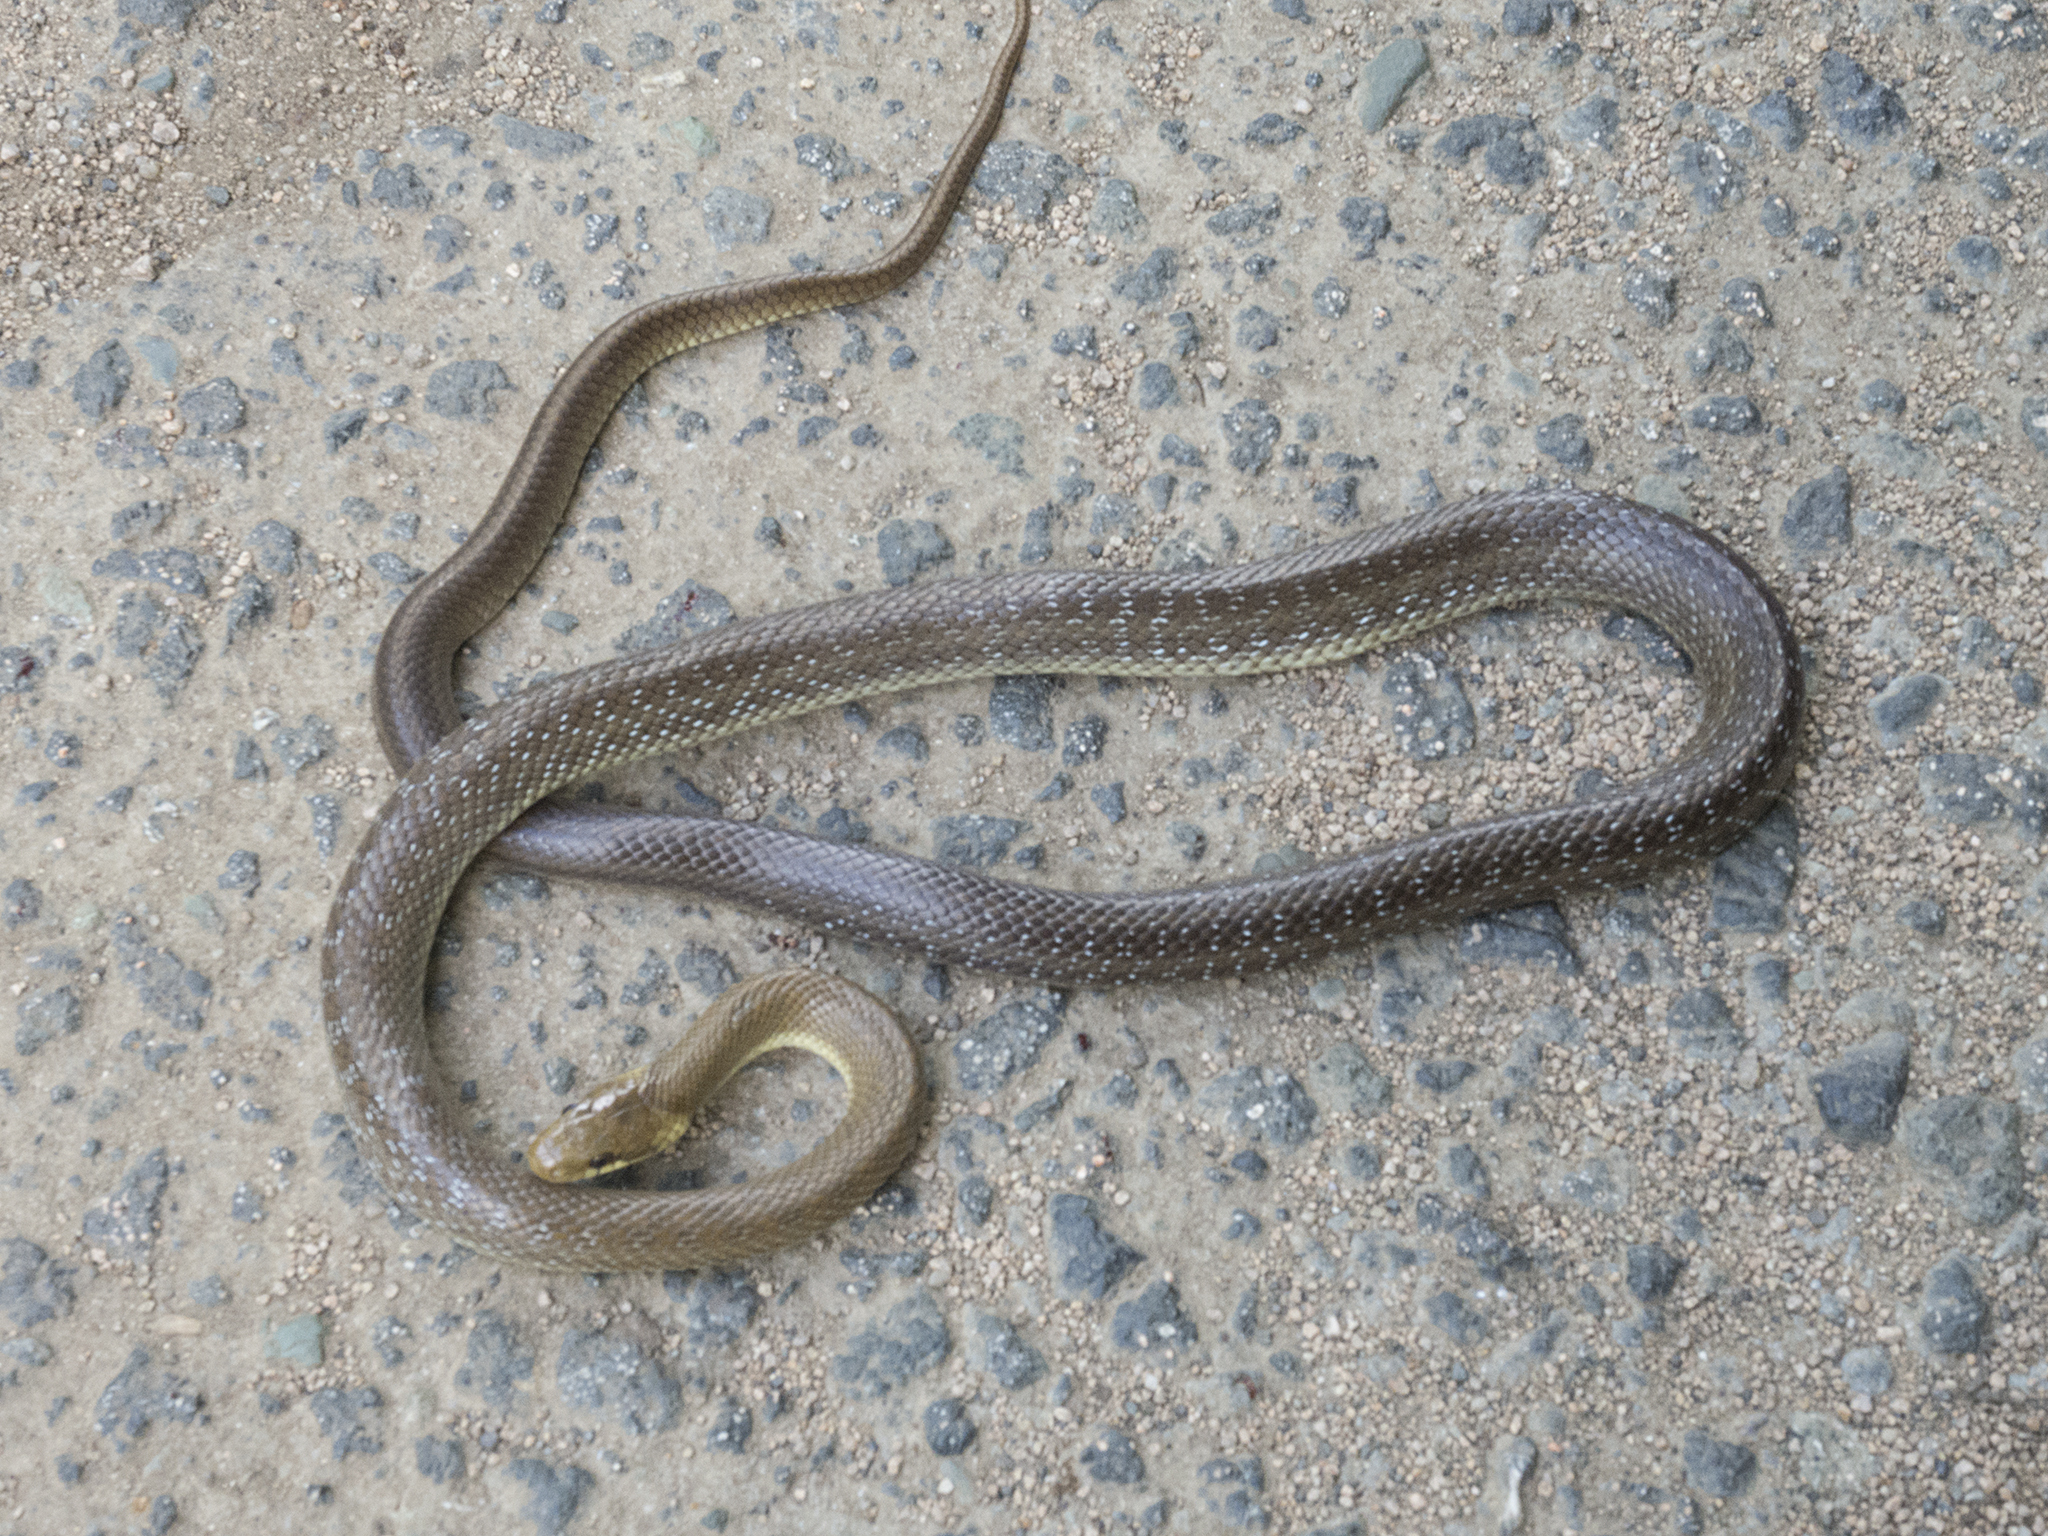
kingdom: Animalia
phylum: Chordata
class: Squamata
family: Colubridae
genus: Zamenis
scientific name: Zamenis longissimus
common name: Aesculapean snake
